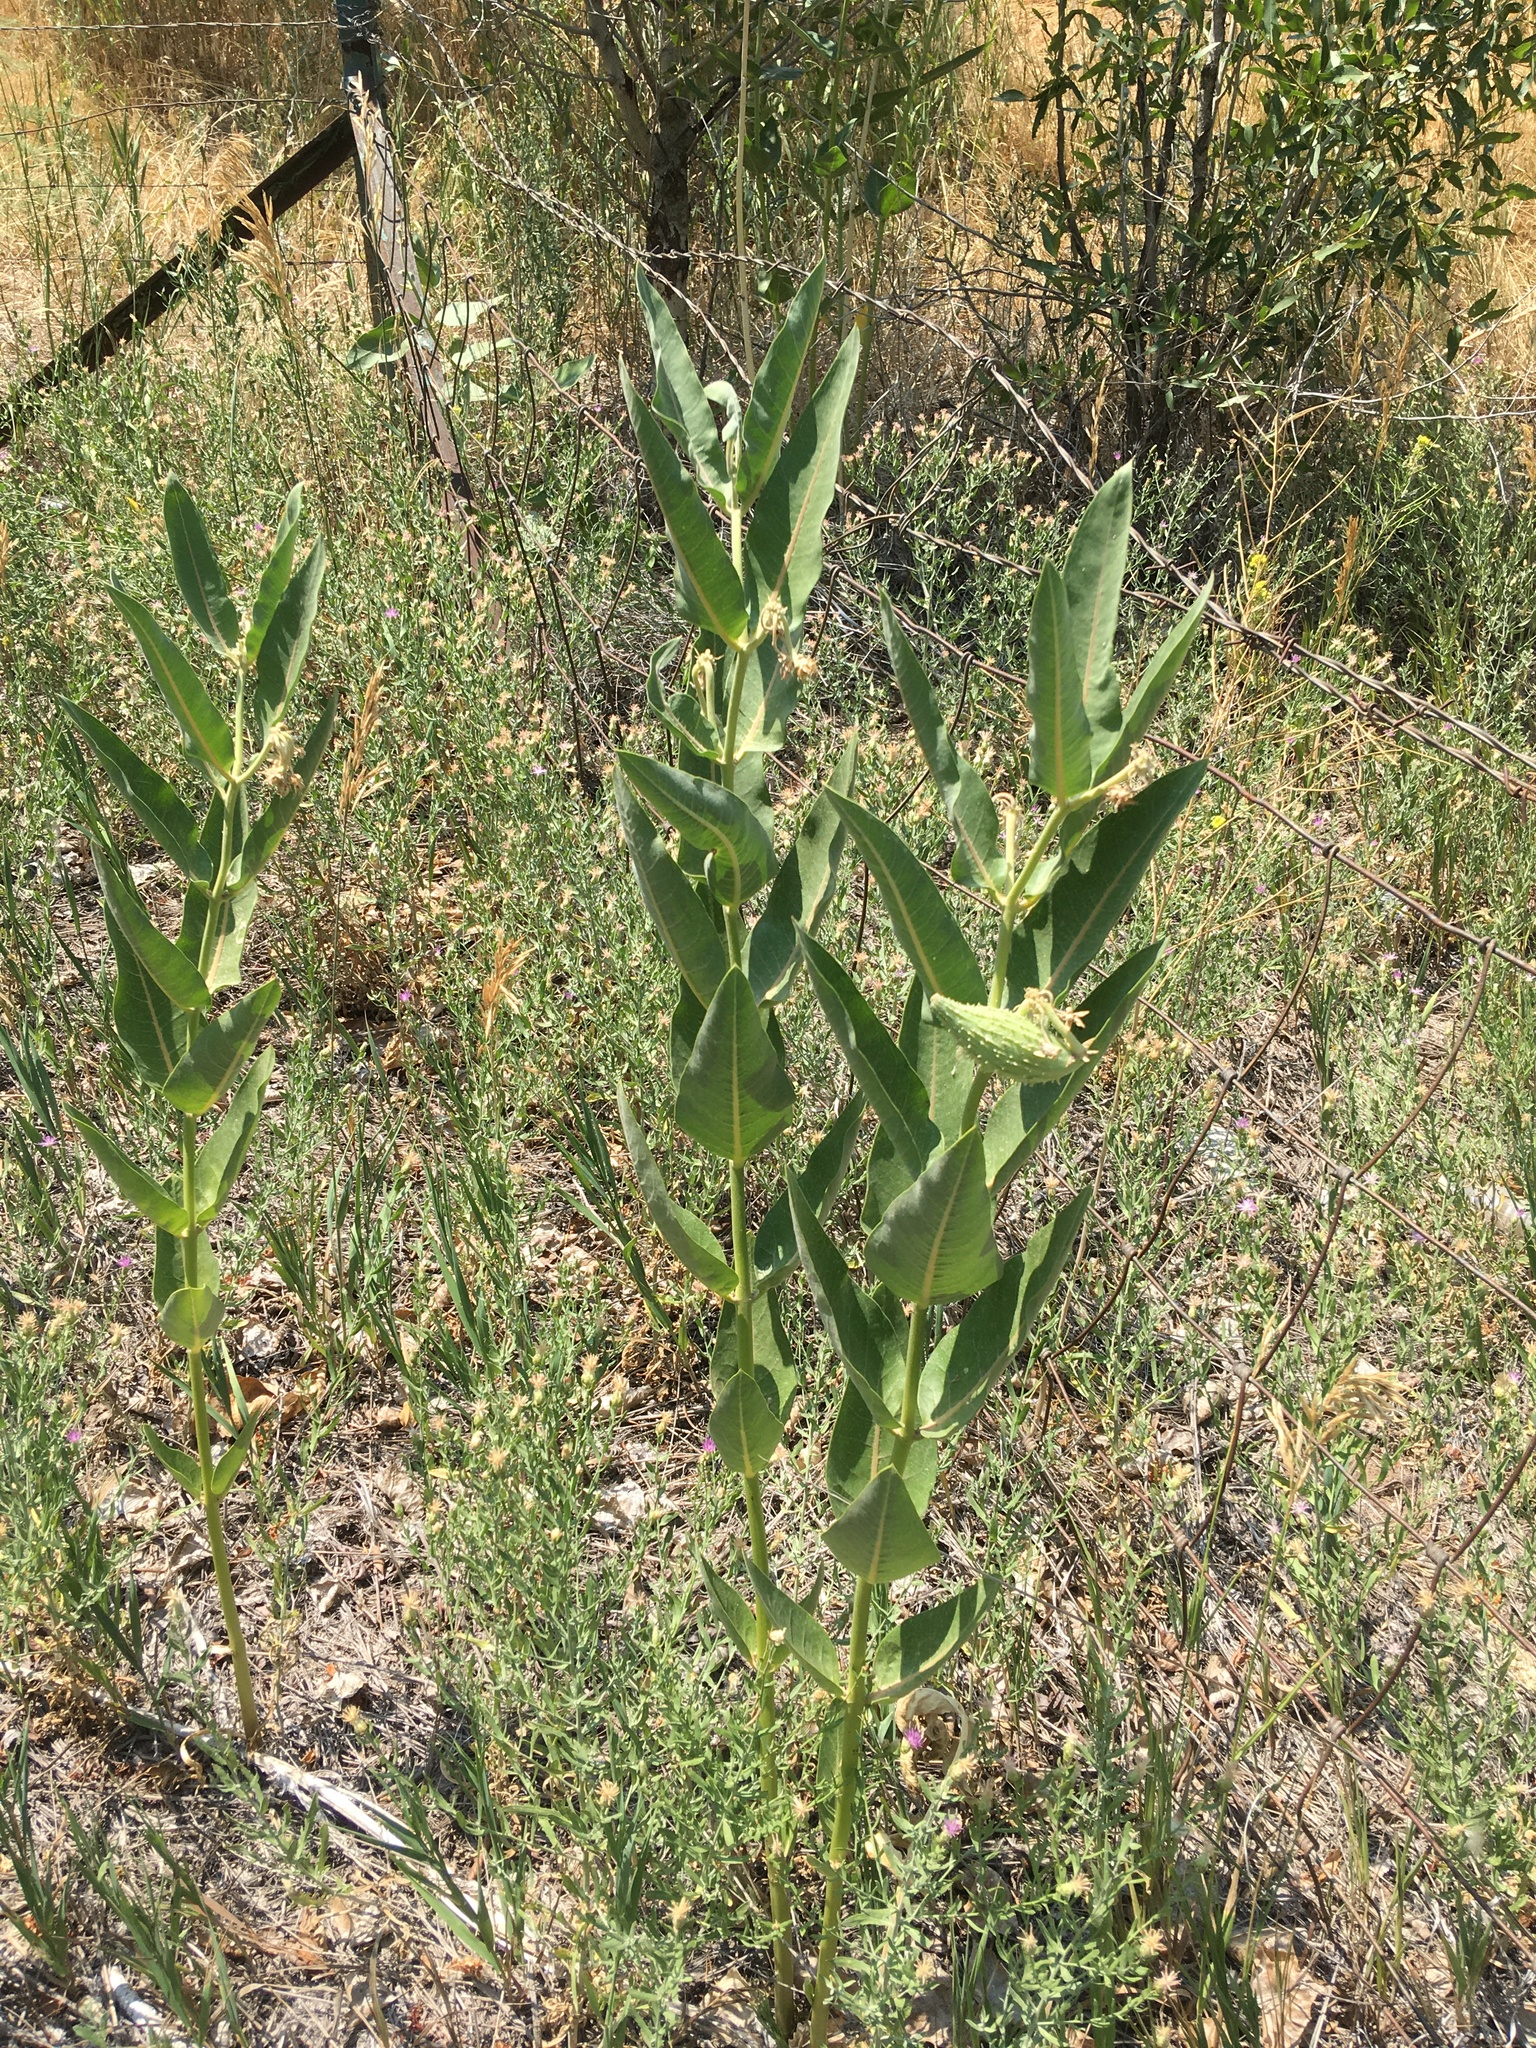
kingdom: Plantae
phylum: Tracheophyta
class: Magnoliopsida
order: Gentianales
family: Apocynaceae
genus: Asclepias
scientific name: Asclepias speciosa
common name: Showy milkweed
